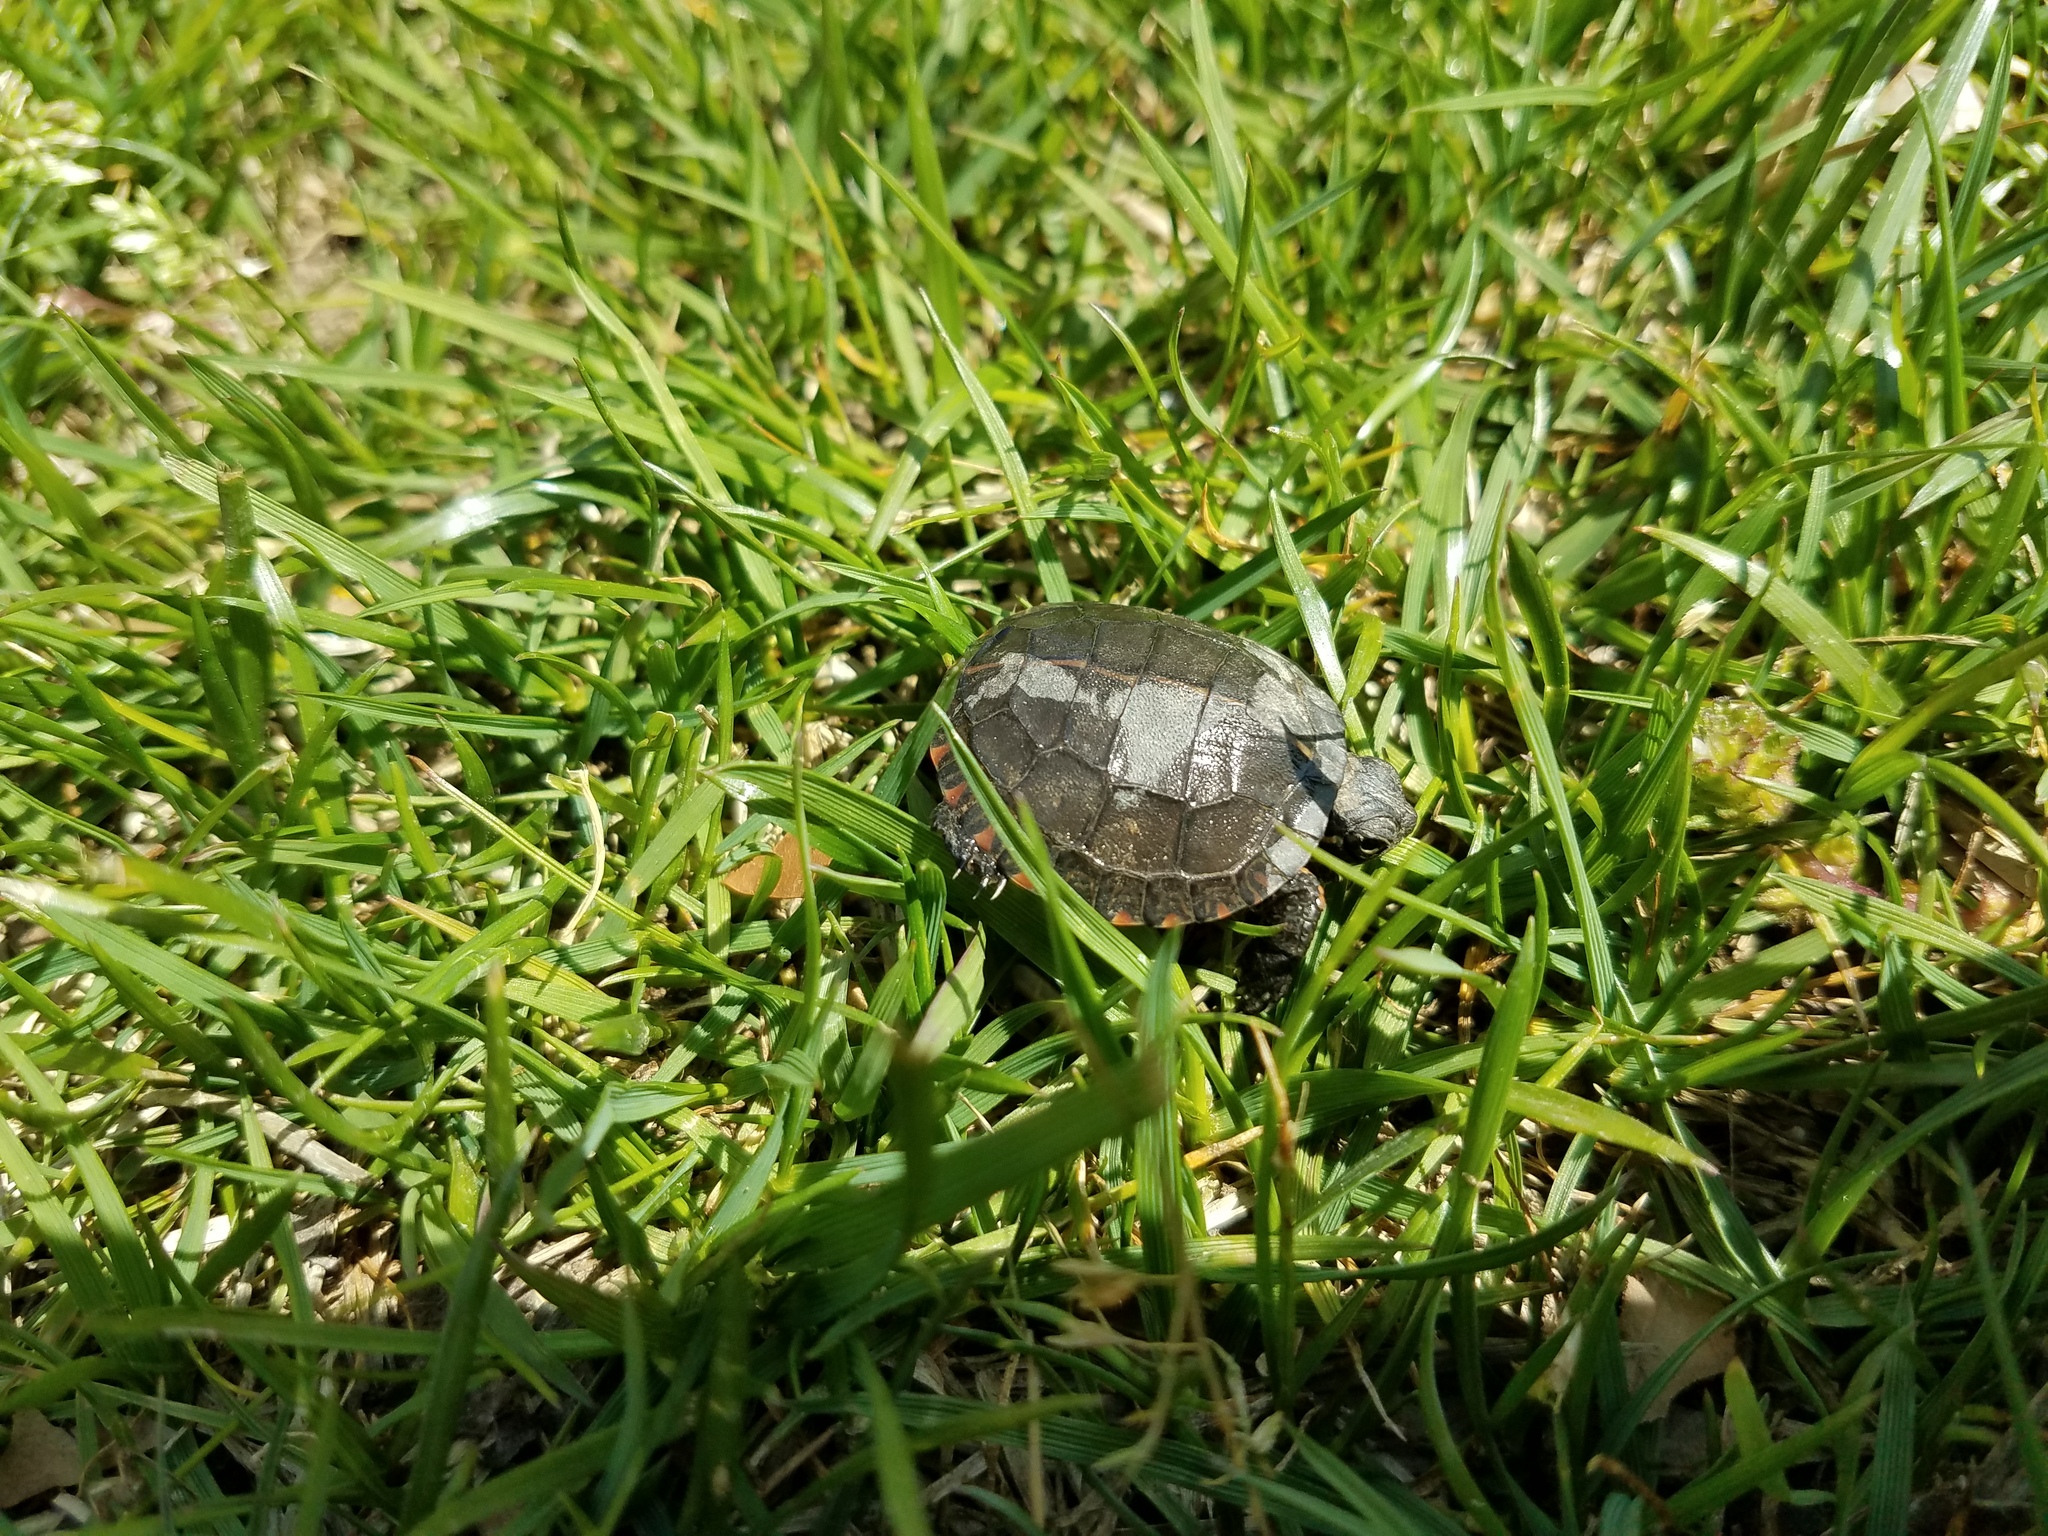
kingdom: Animalia
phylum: Chordata
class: Testudines
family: Emydidae
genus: Chrysemys
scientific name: Chrysemys picta
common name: Painted turtle
